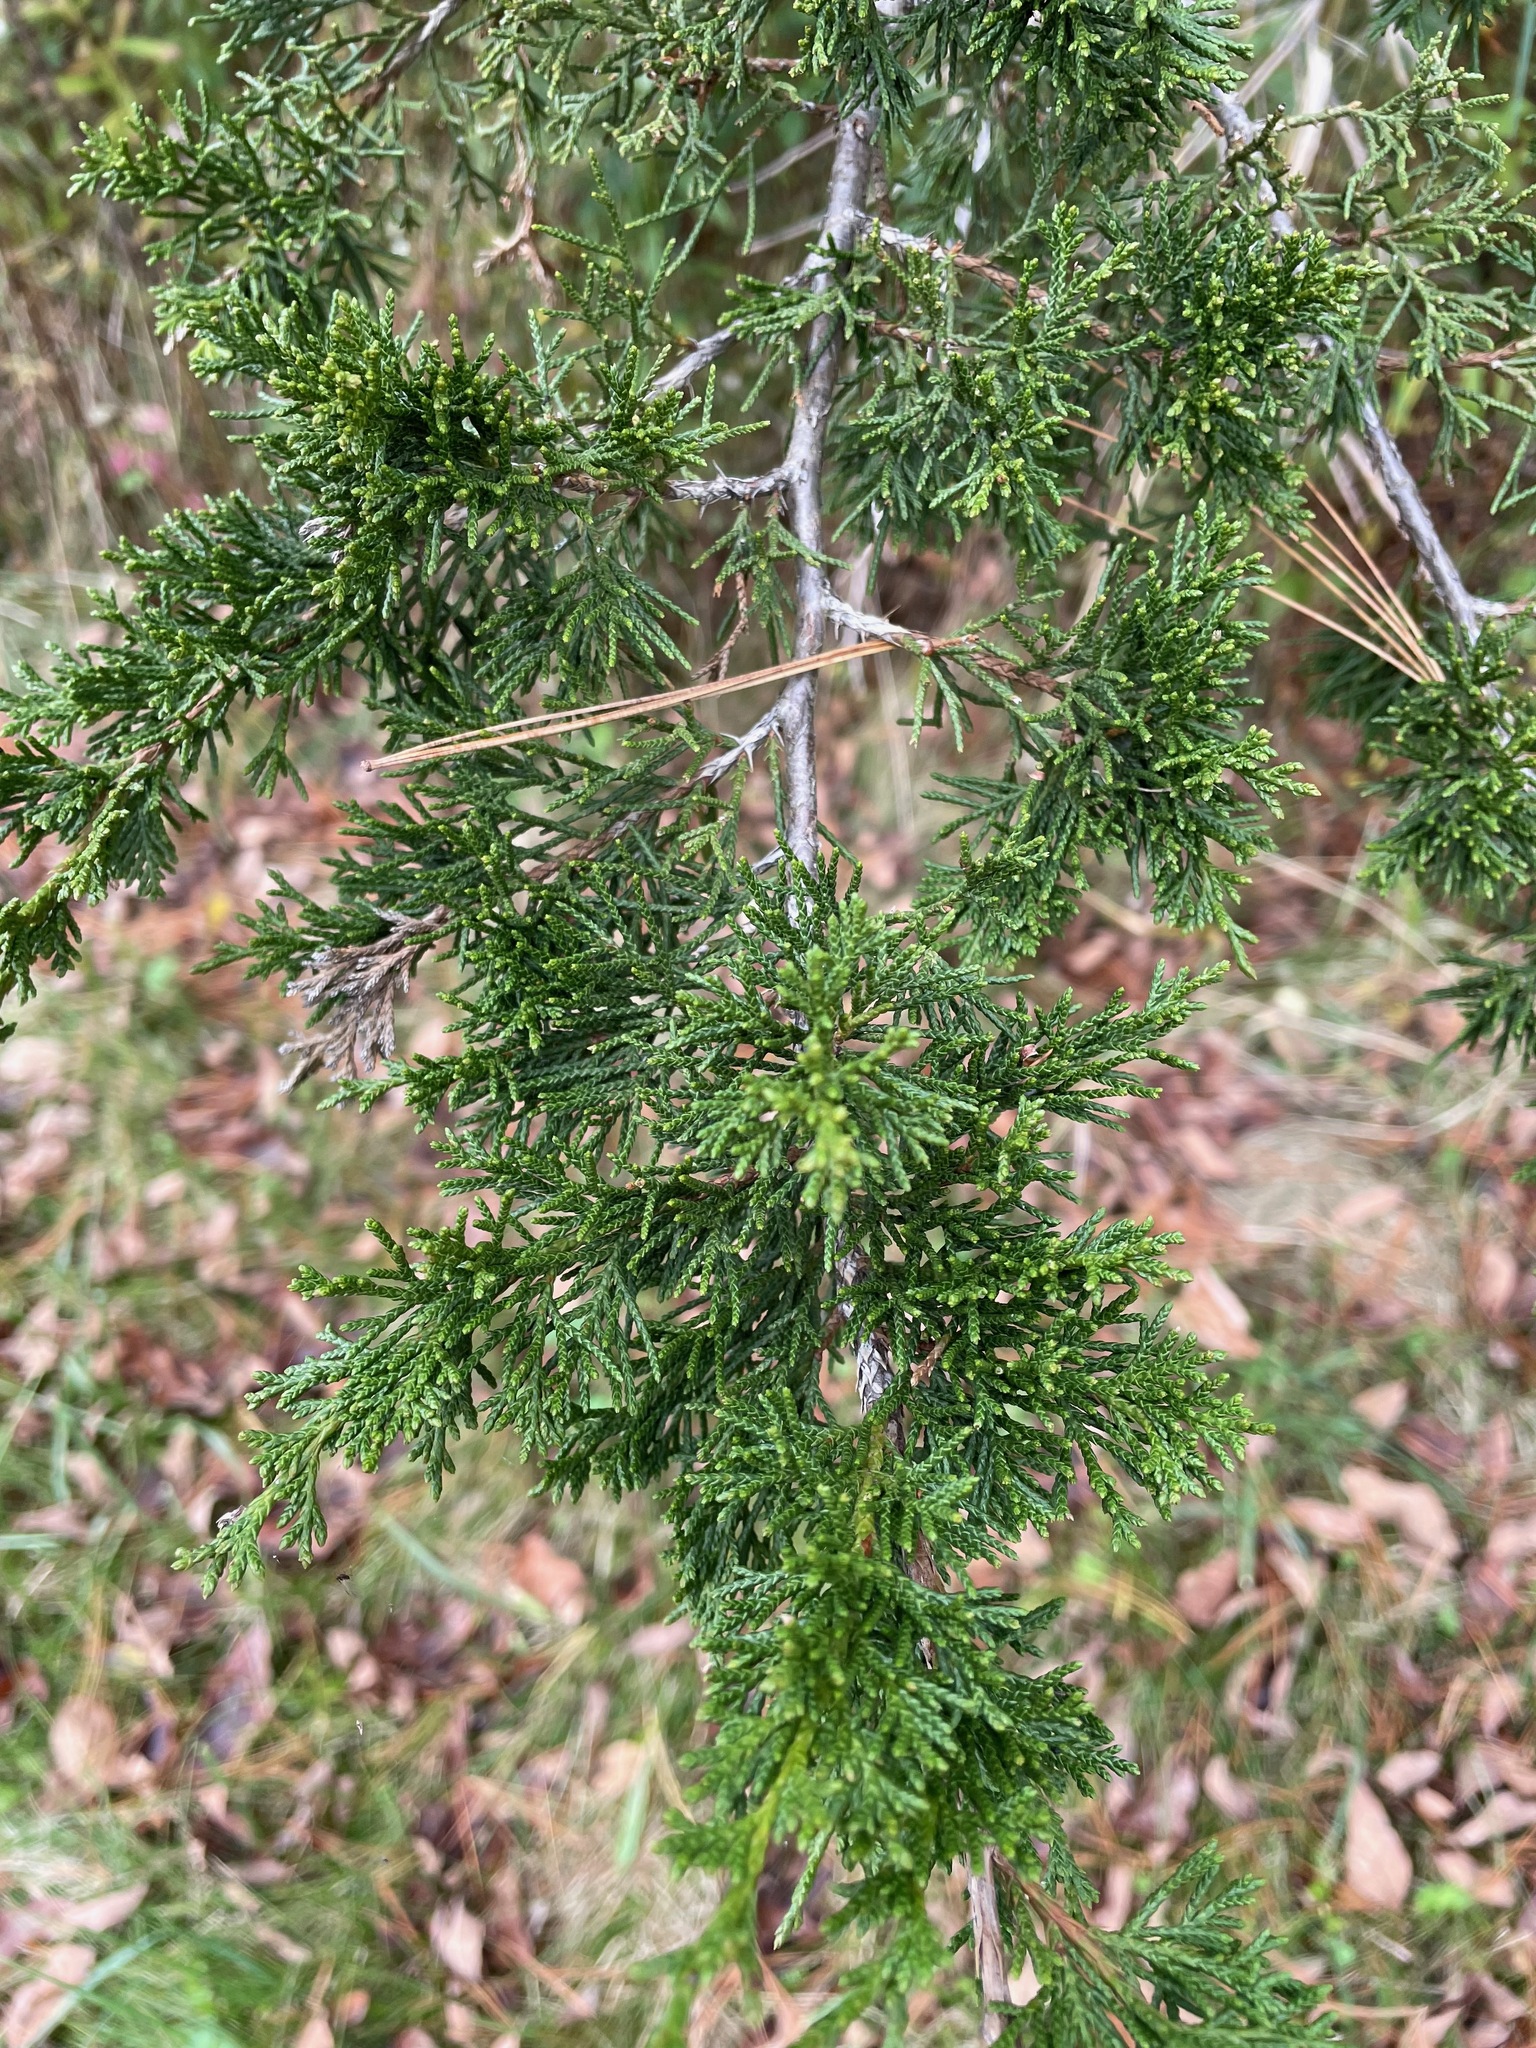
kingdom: Plantae
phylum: Tracheophyta
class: Pinopsida
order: Pinales
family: Cupressaceae
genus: Juniperus
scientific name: Juniperus virginiana
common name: Red juniper
